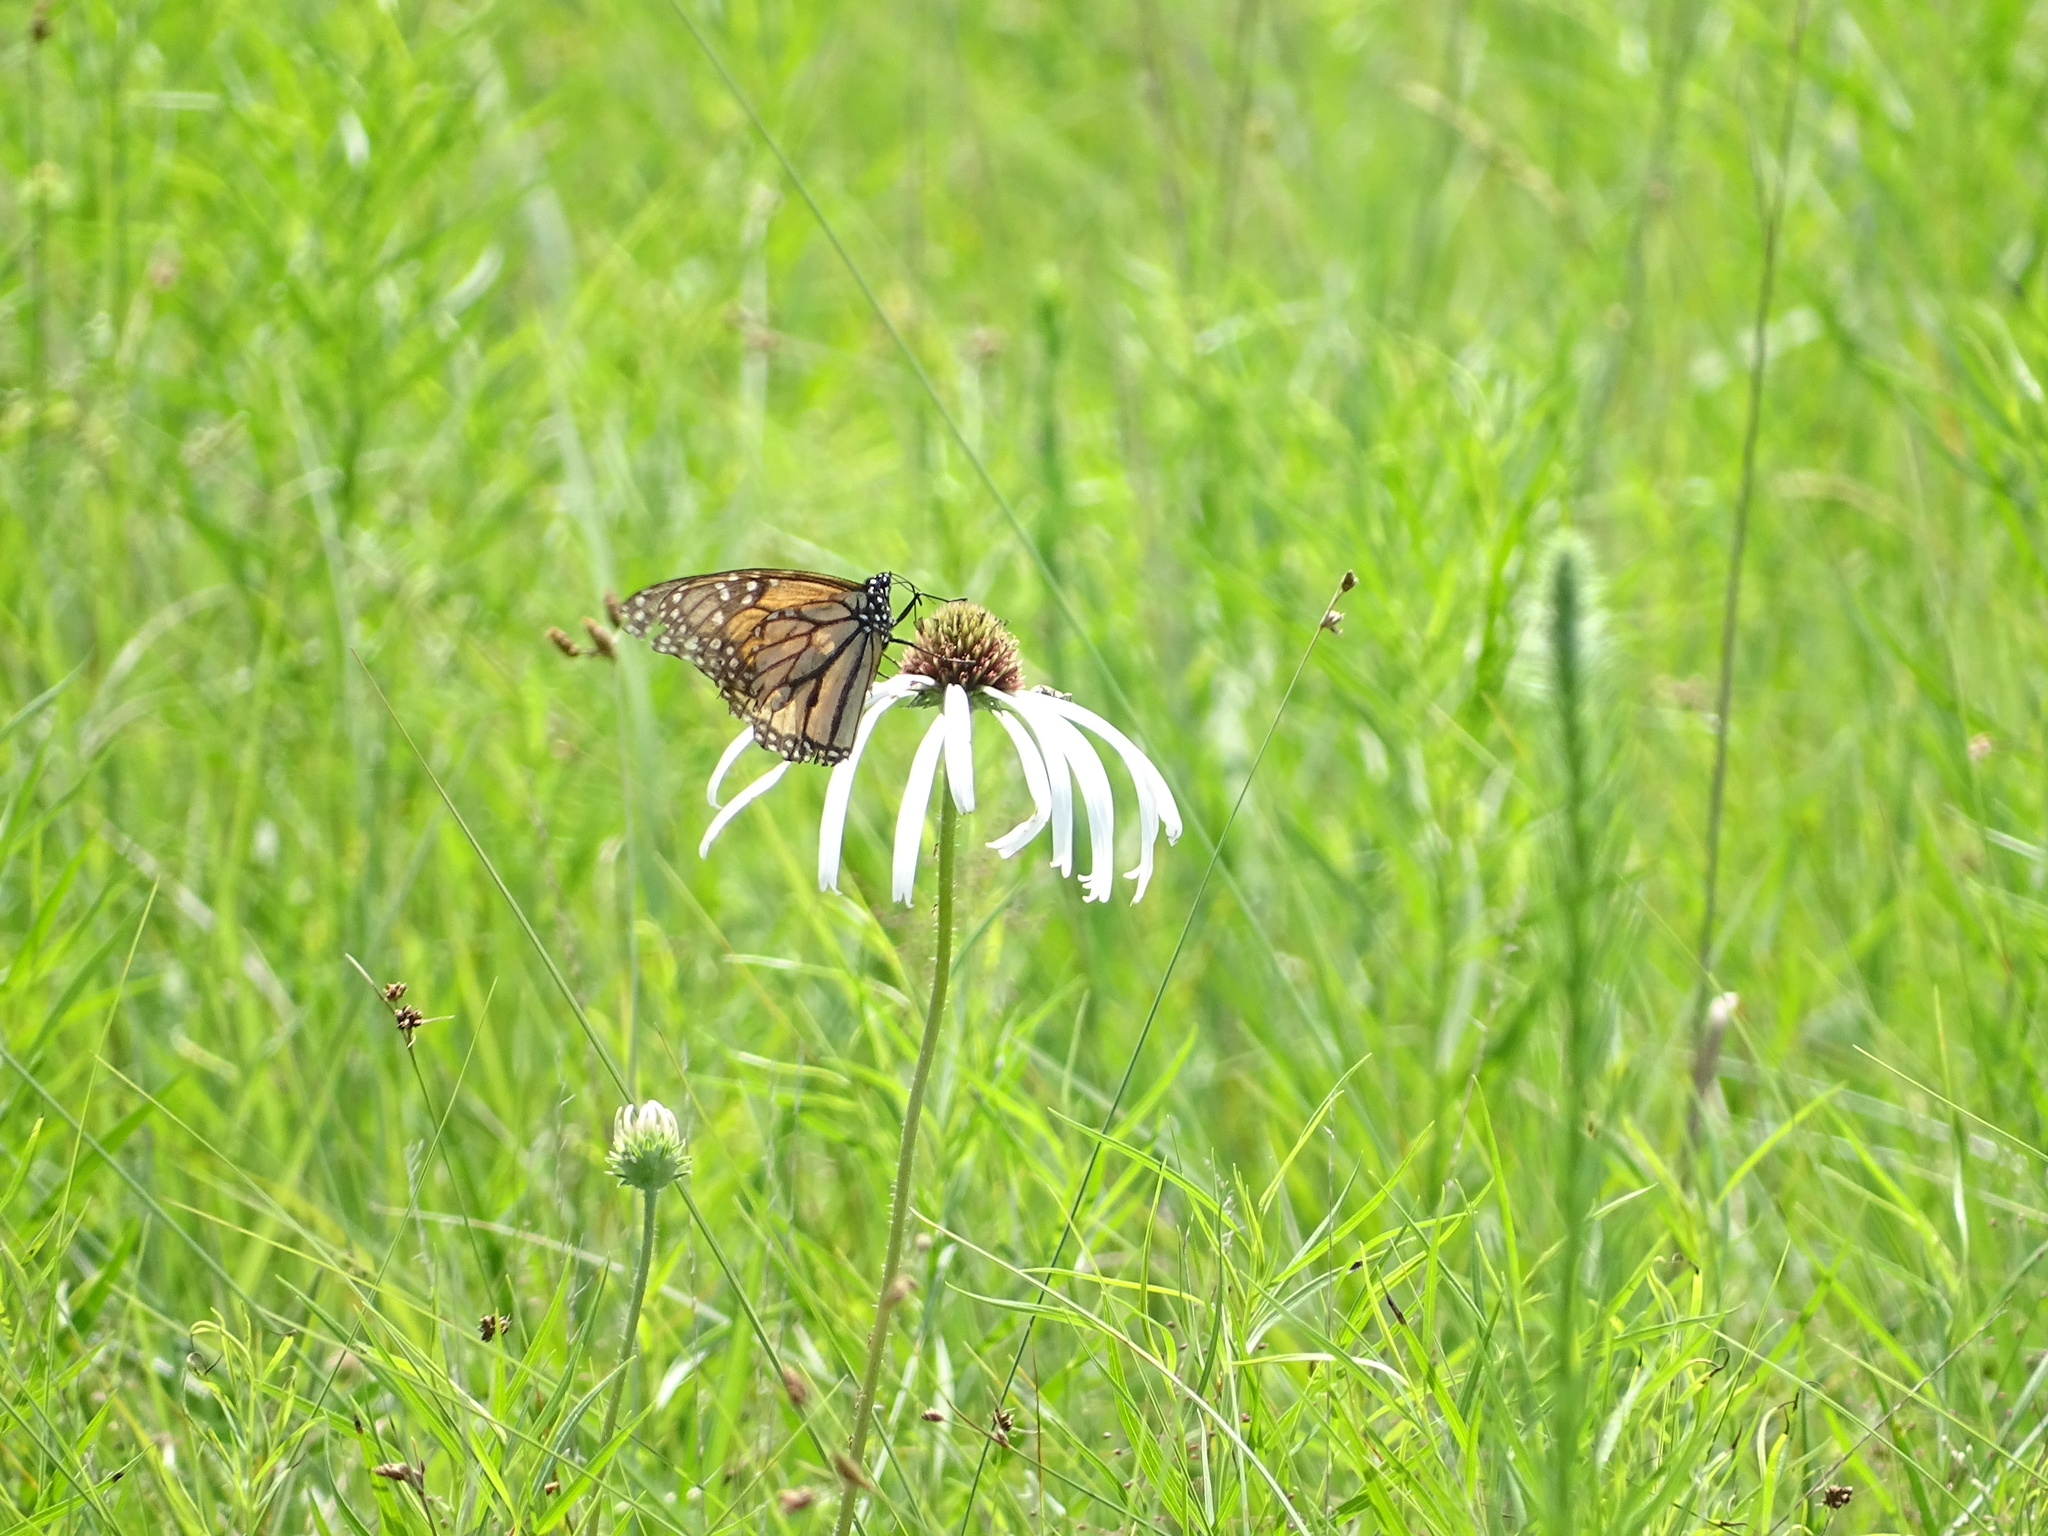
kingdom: Animalia
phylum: Arthropoda
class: Insecta
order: Lepidoptera
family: Nymphalidae
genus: Danaus
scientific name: Danaus plexippus
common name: Monarch
